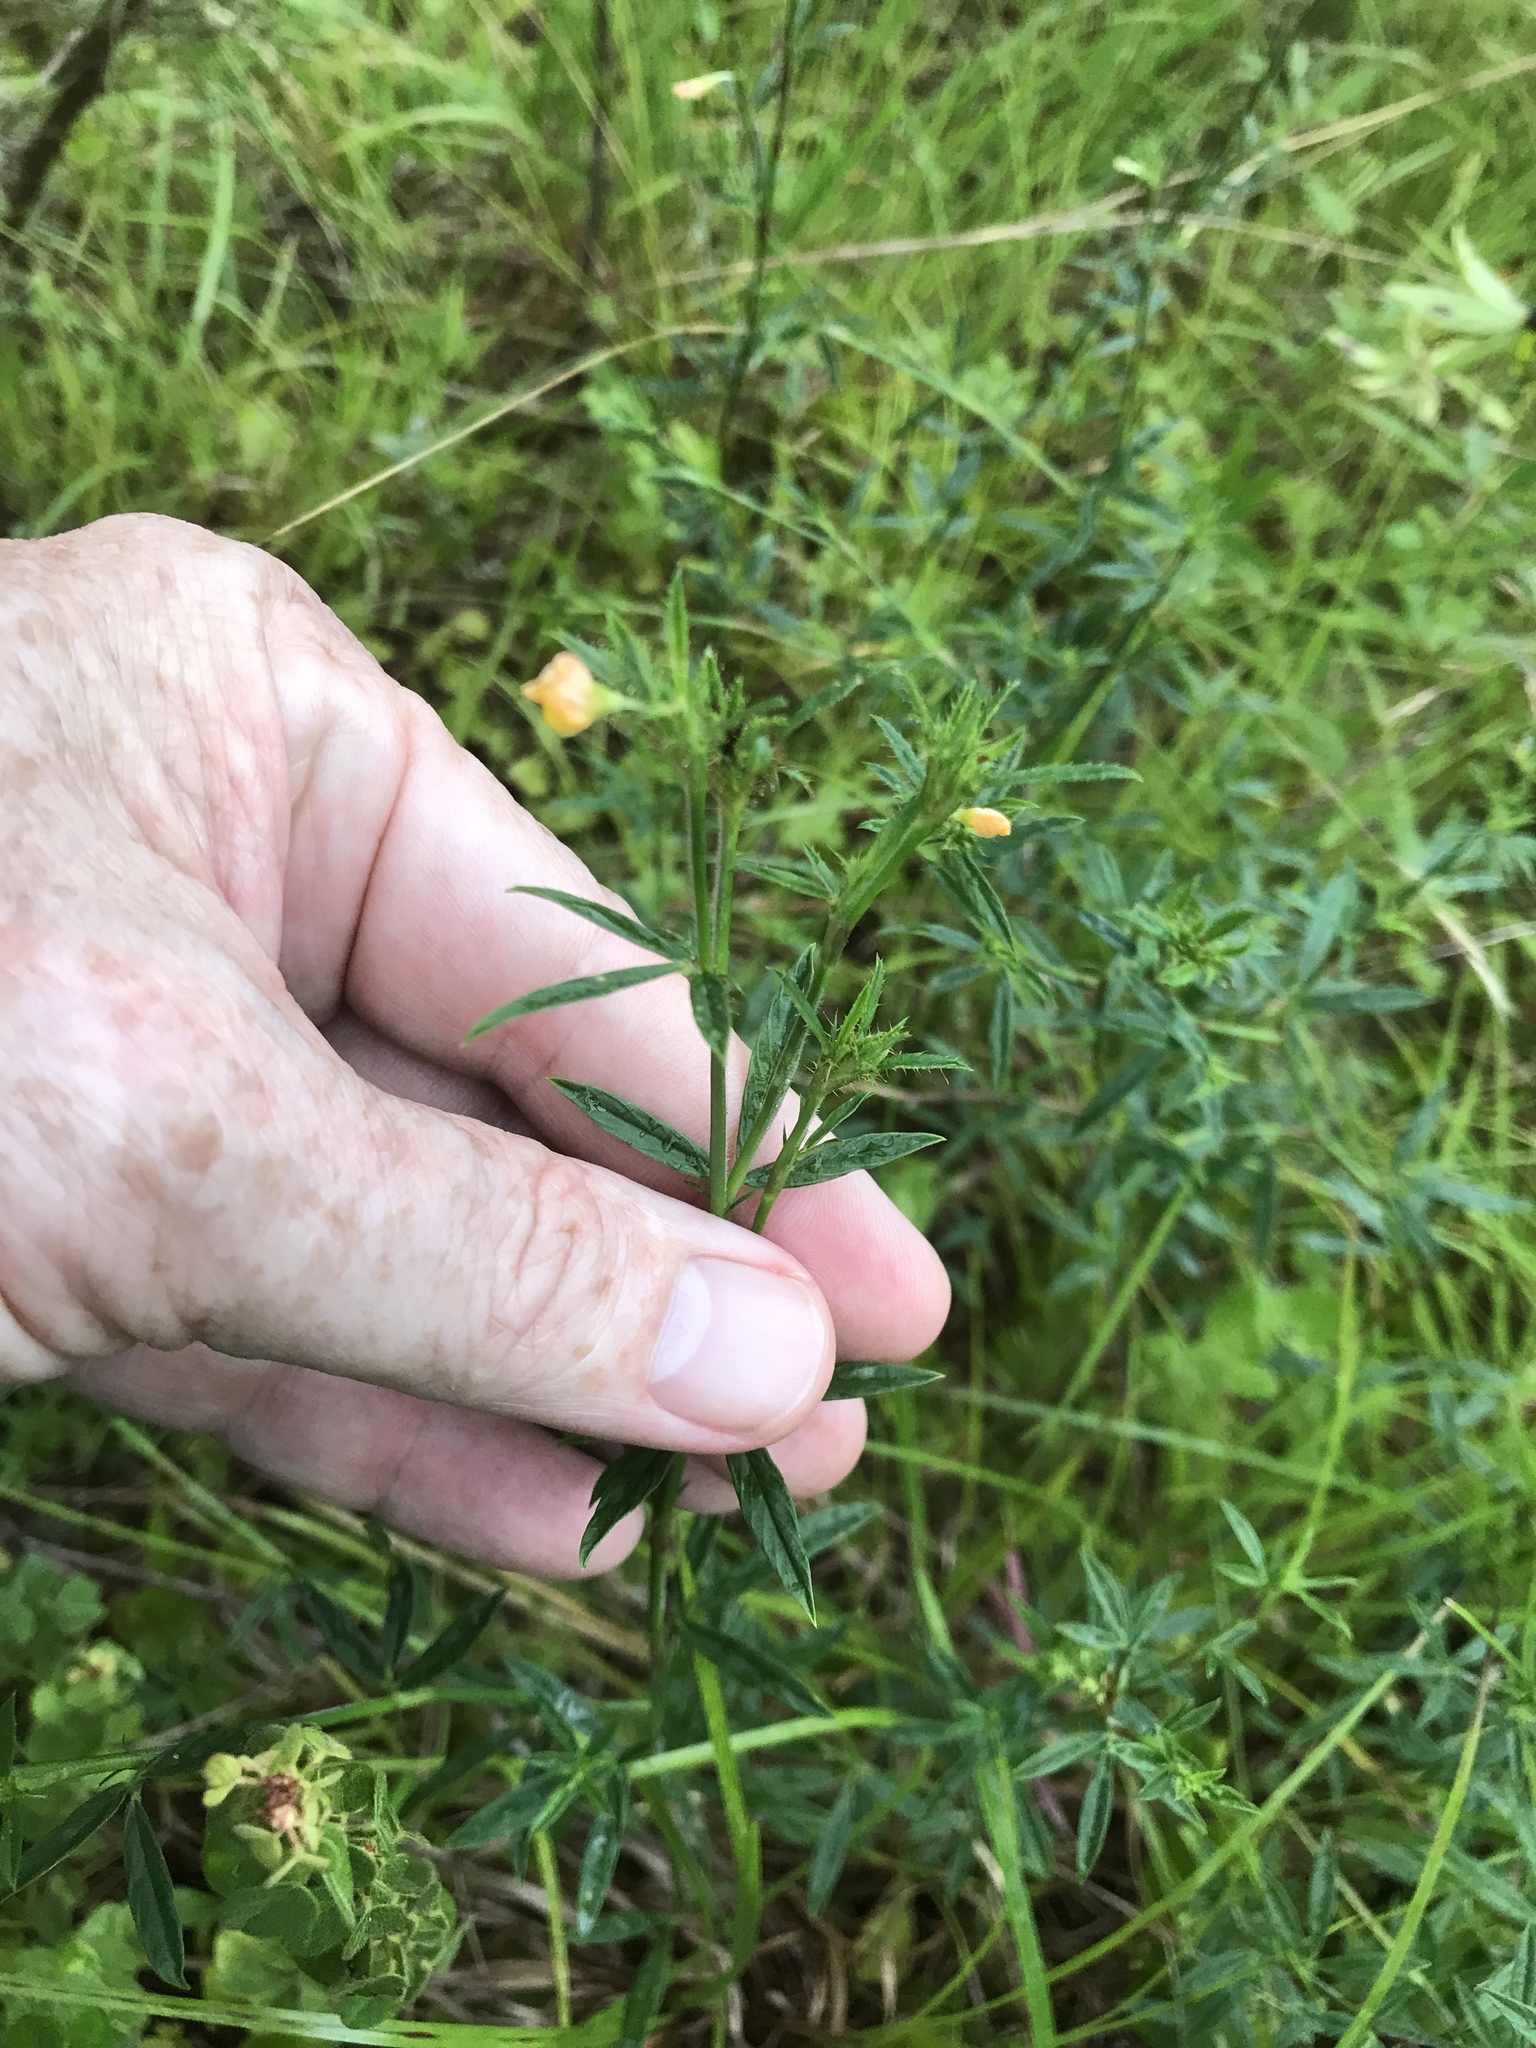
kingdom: Plantae
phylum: Tracheophyta
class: Magnoliopsida
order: Fabales
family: Fabaceae
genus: Stylosanthes
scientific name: Stylosanthes biflora
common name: Two-flower pencil-flower
